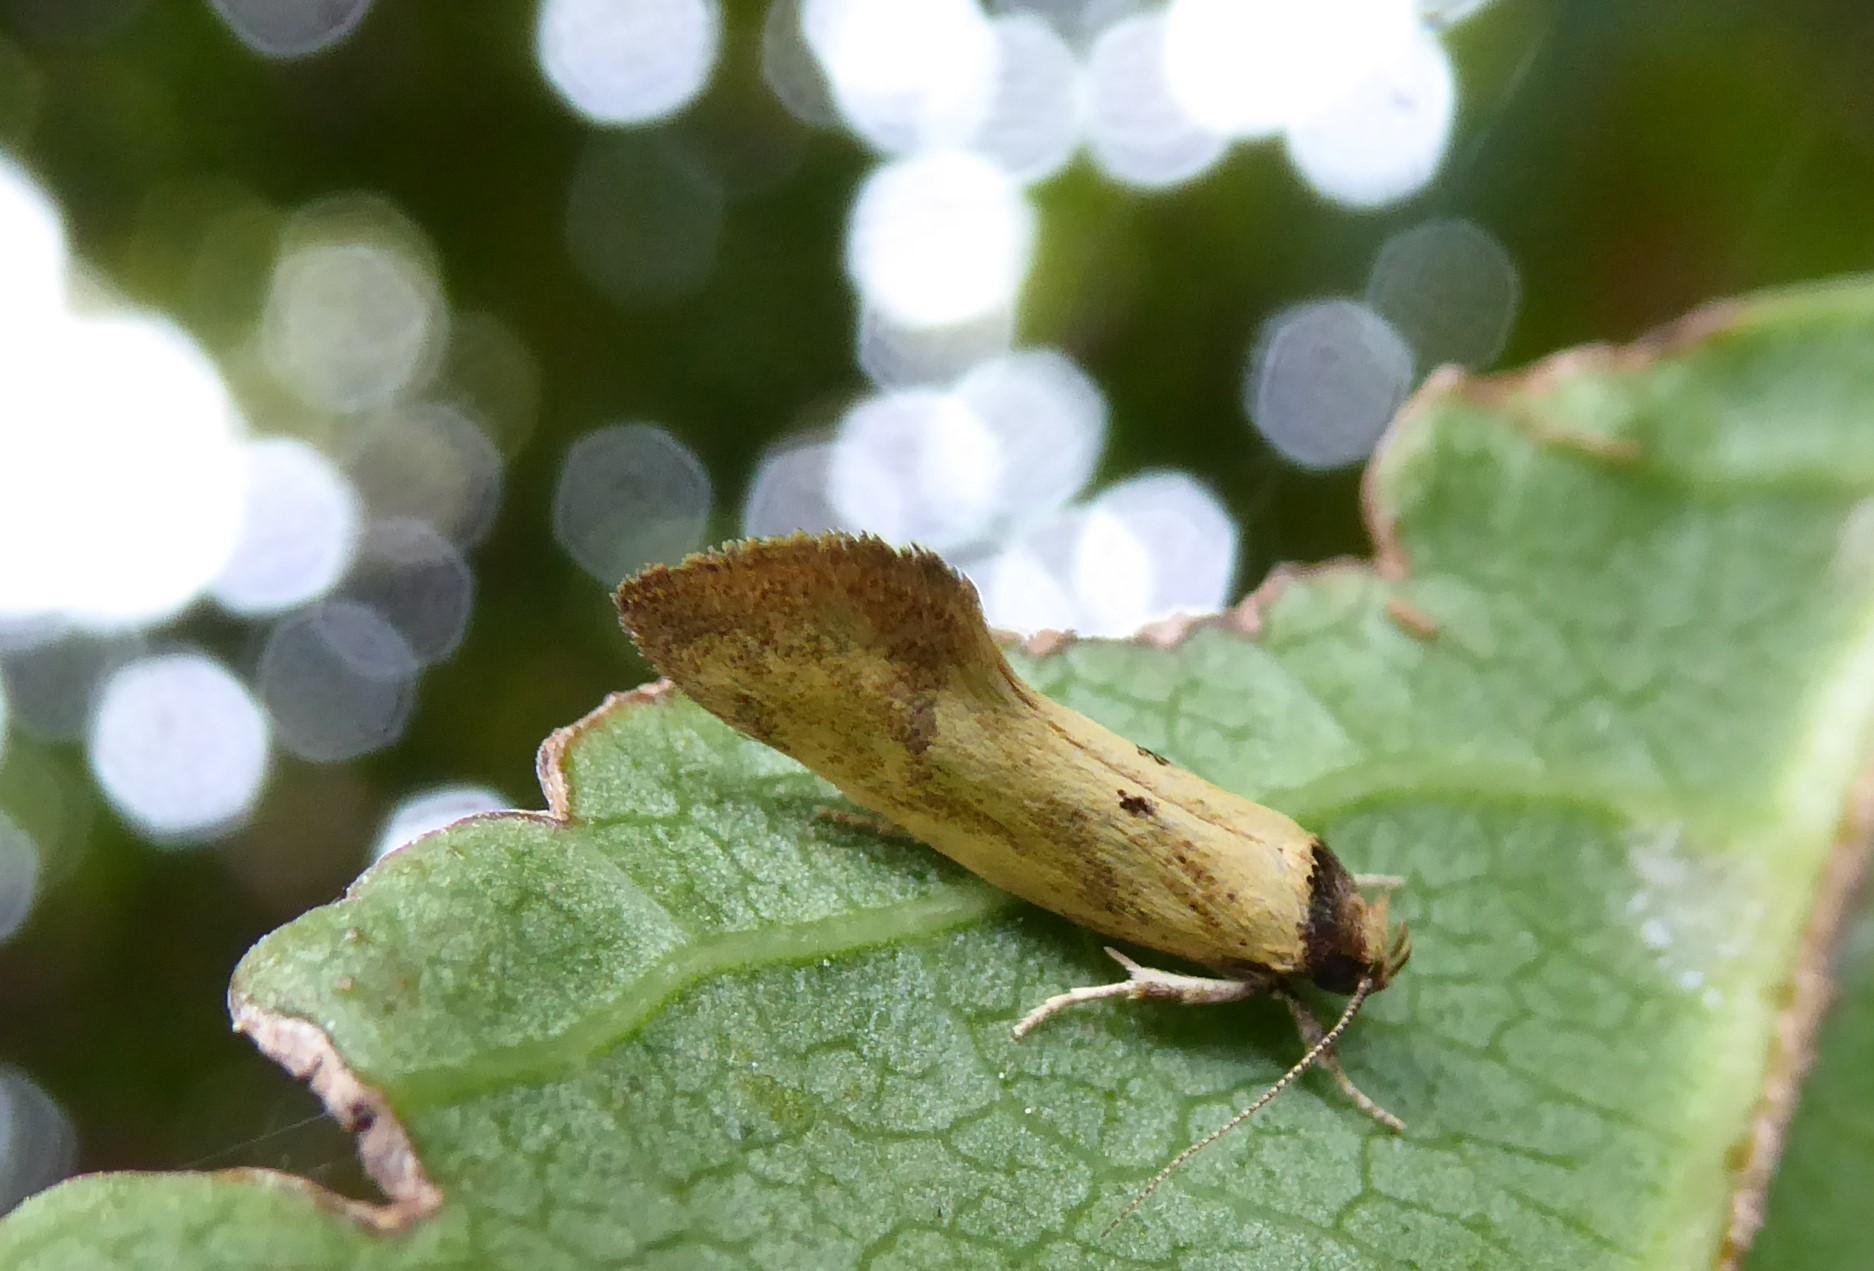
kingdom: Animalia
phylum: Arthropoda
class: Insecta
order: Lepidoptera
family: Oecophoridae
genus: Tingena
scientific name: Tingena melinella
